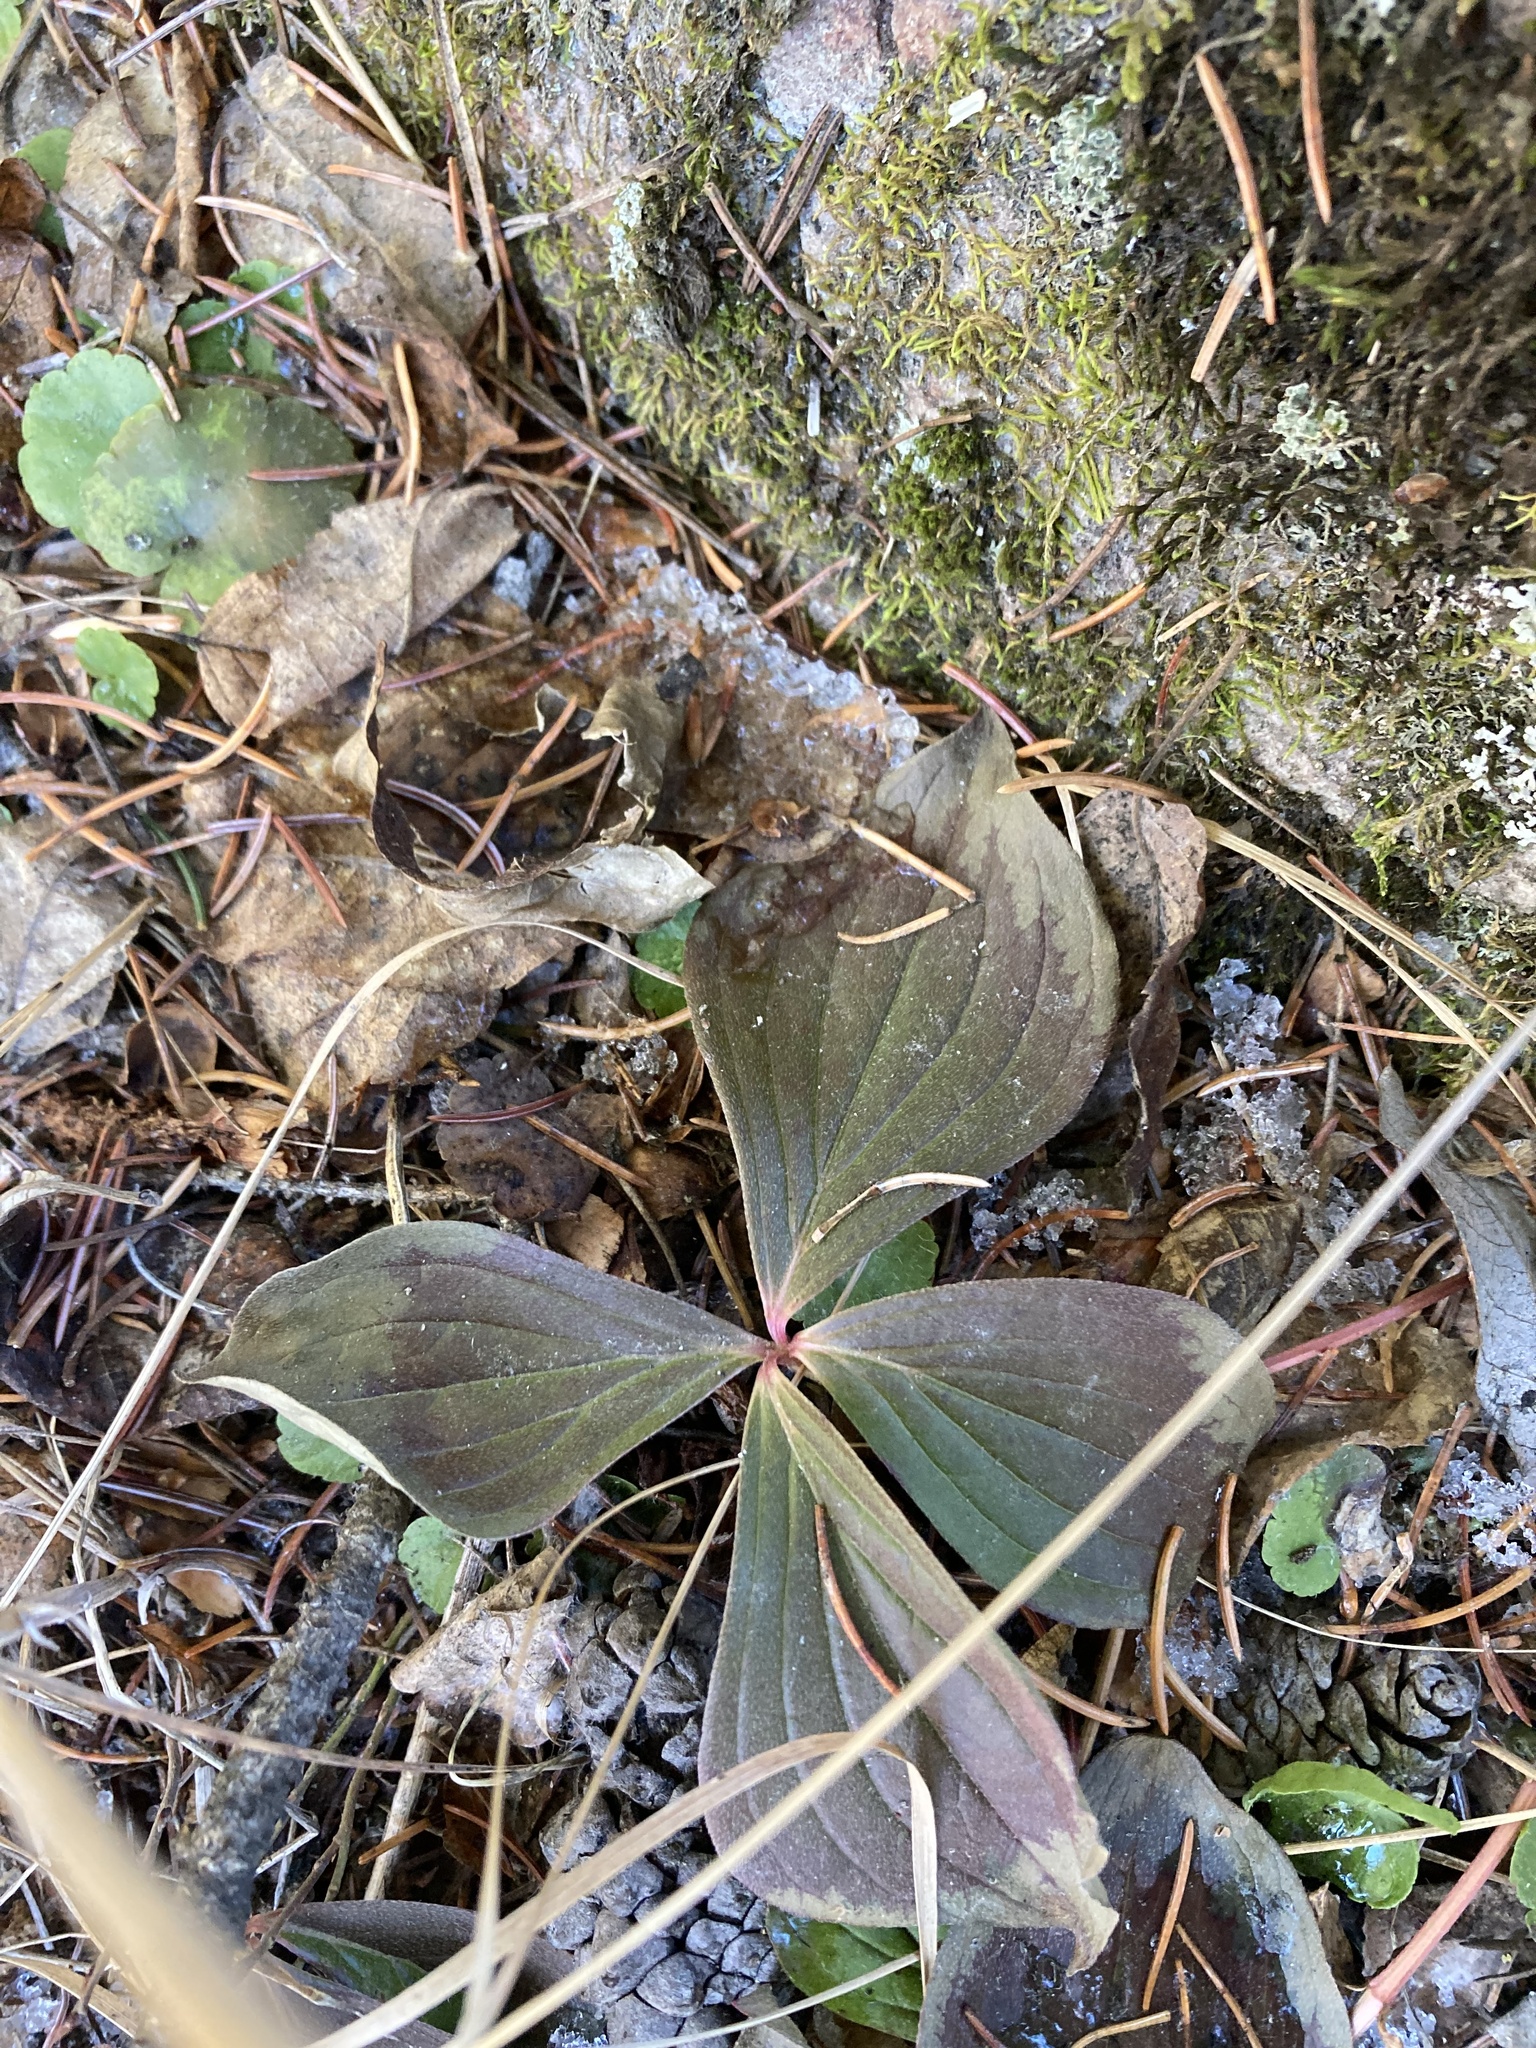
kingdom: Plantae
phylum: Tracheophyta
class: Magnoliopsida
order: Cornales
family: Cornaceae
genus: Cornus
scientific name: Cornus canadensis
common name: Creeping dogwood
